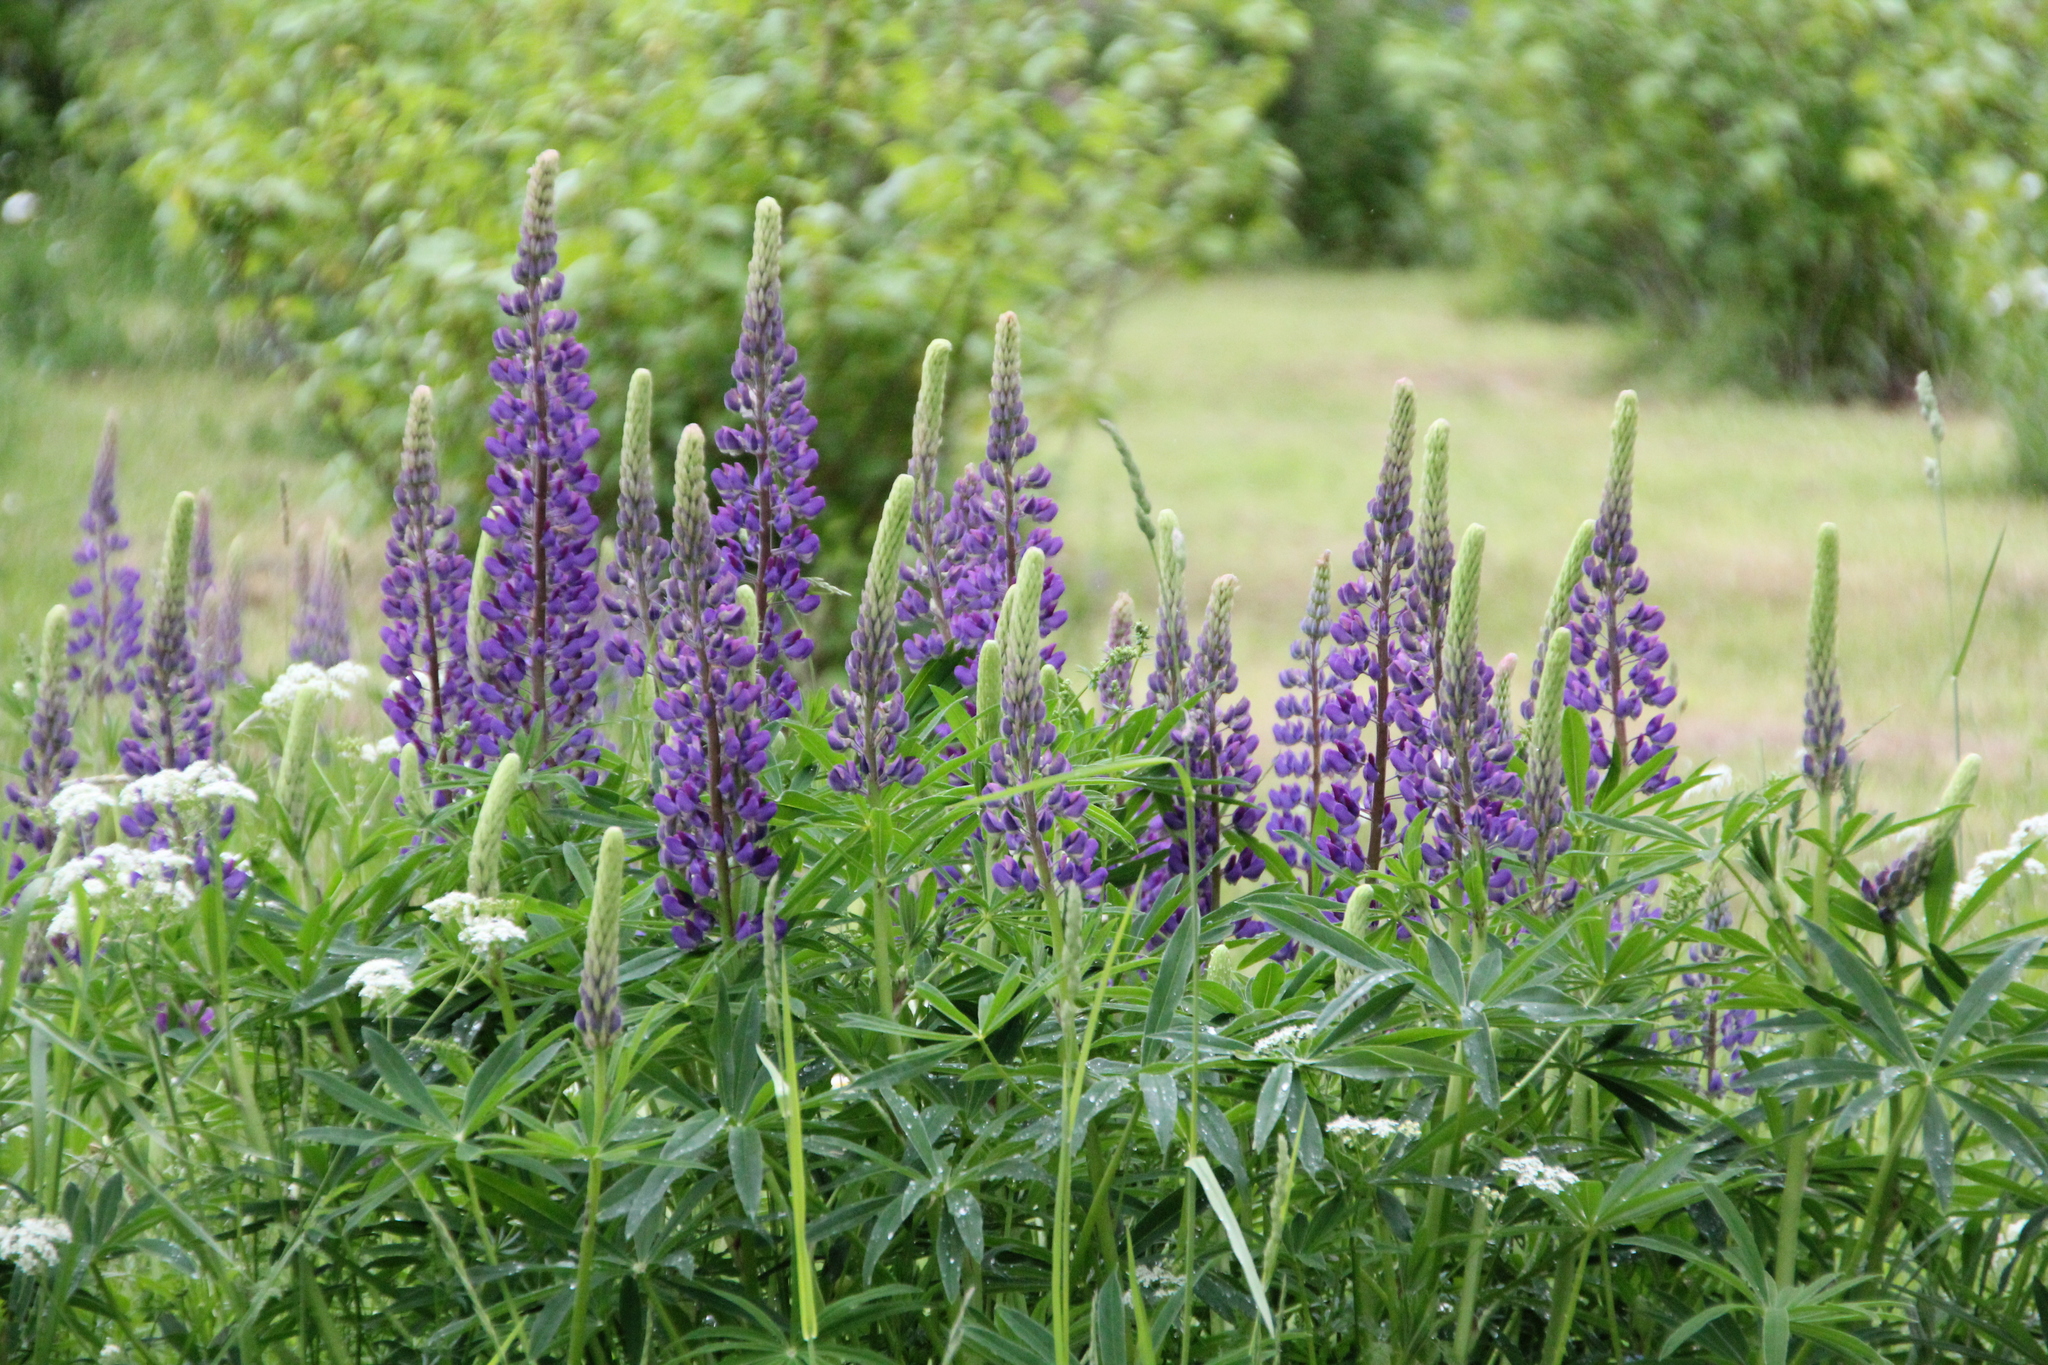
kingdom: Plantae
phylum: Tracheophyta
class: Magnoliopsida
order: Fabales
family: Fabaceae
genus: Lupinus
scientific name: Lupinus polyphyllus
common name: Garden lupin
